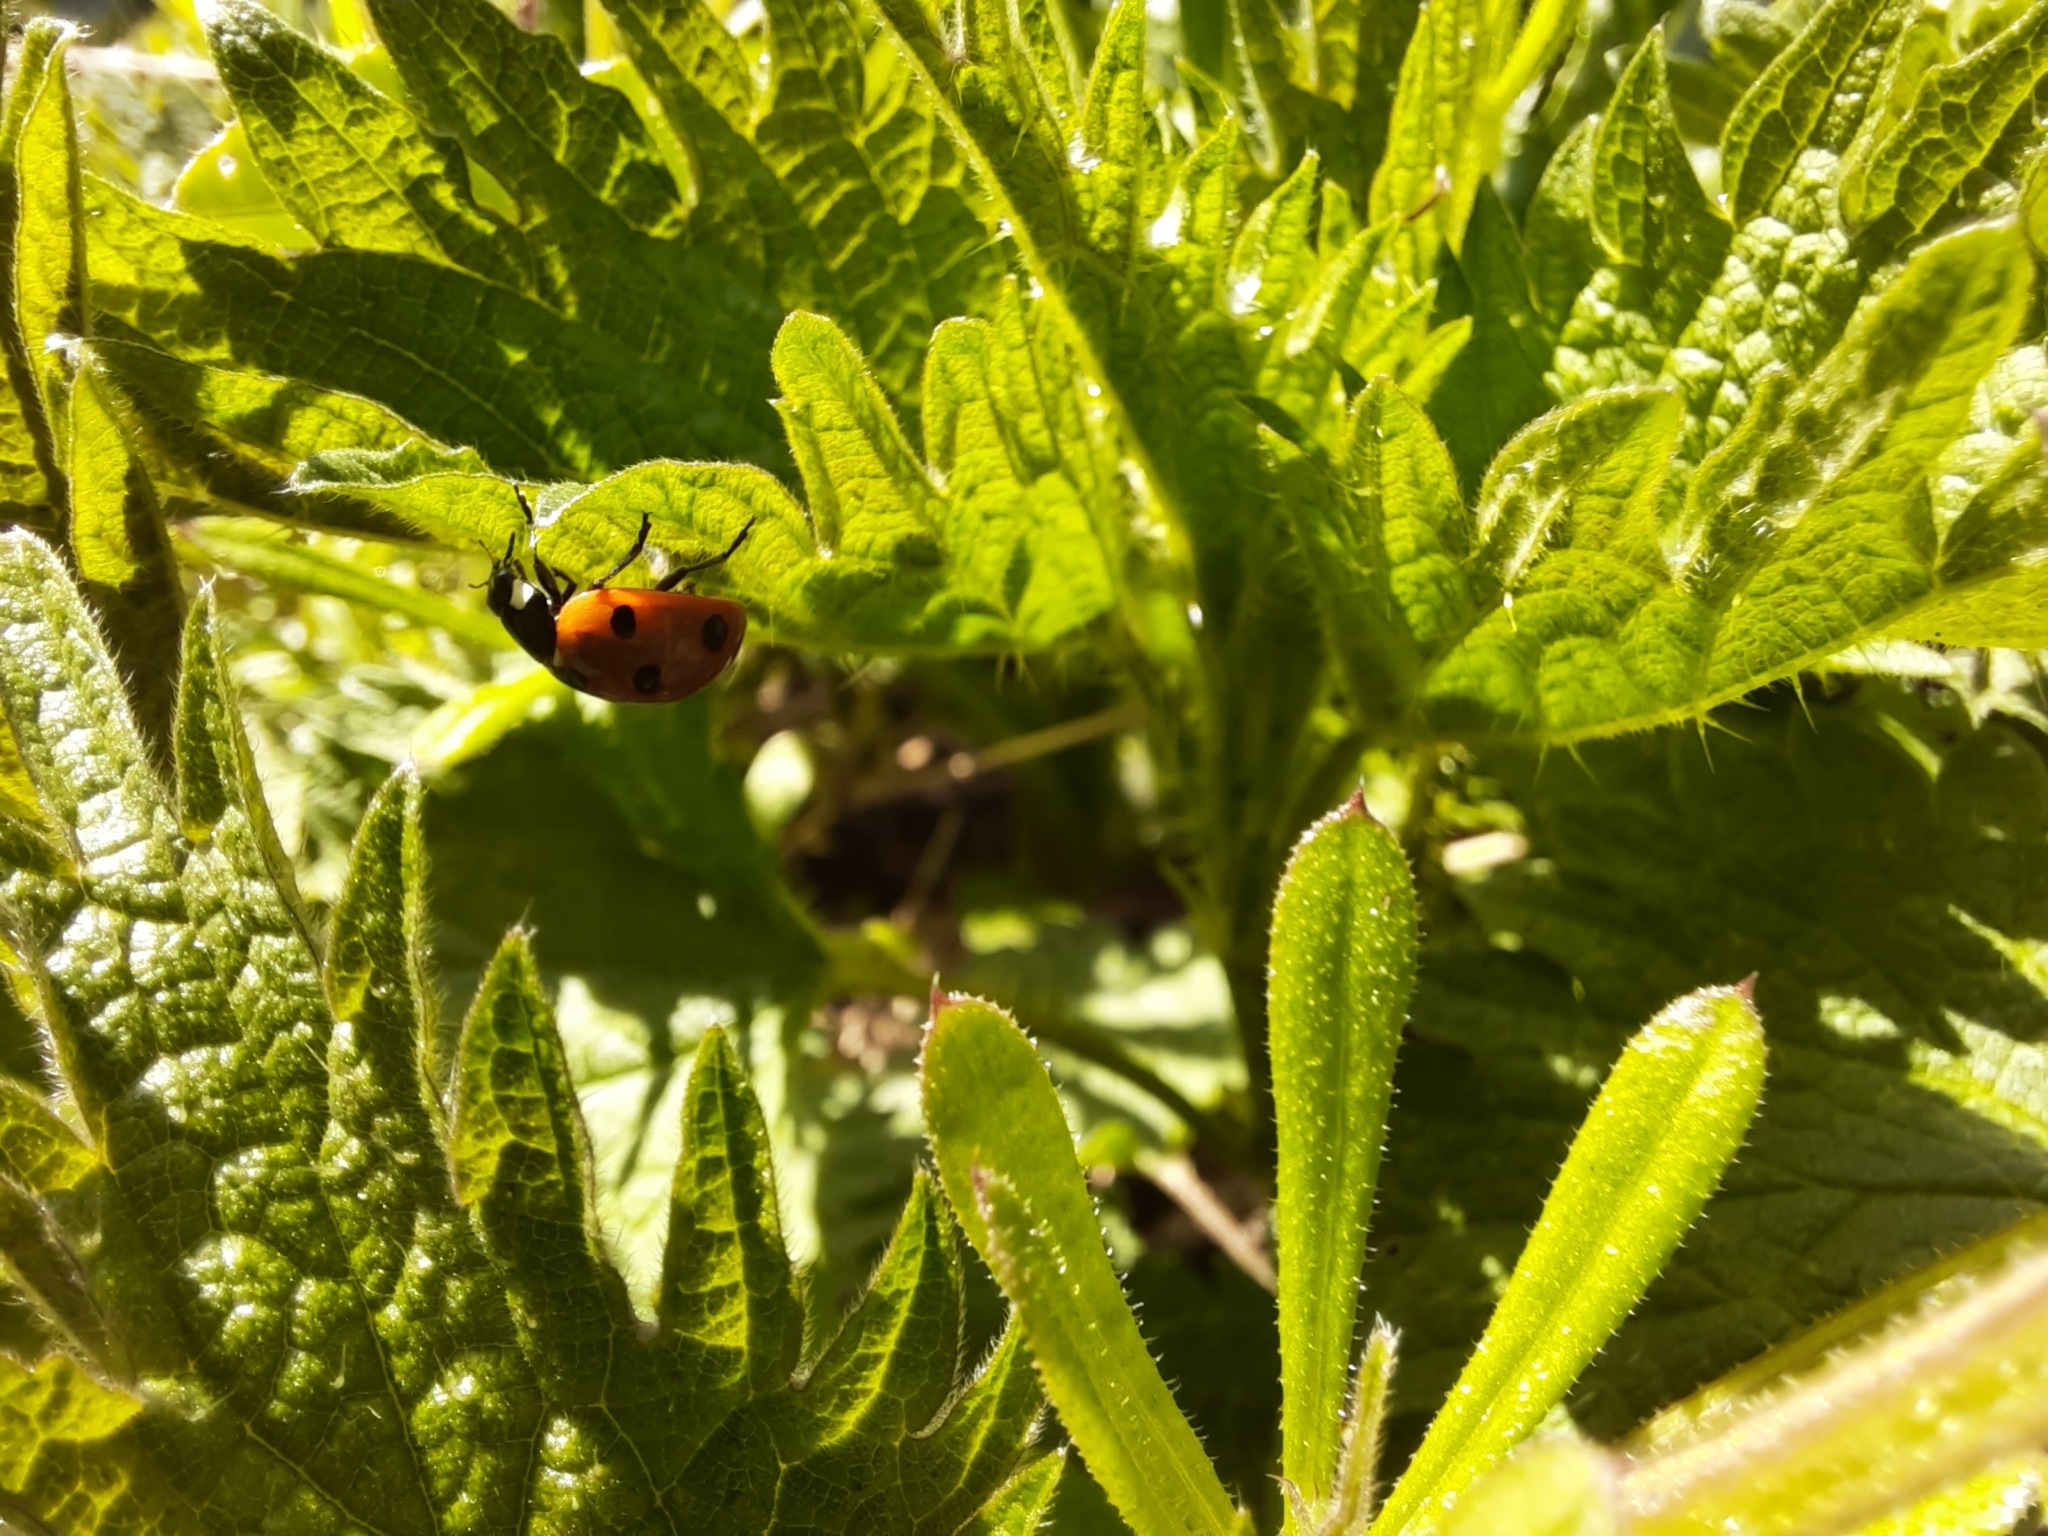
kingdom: Animalia
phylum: Arthropoda
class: Insecta
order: Coleoptera
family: Coccinellidae
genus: Coccinella
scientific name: Coccinella septempunctata
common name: Sevenspotted lady beetle
